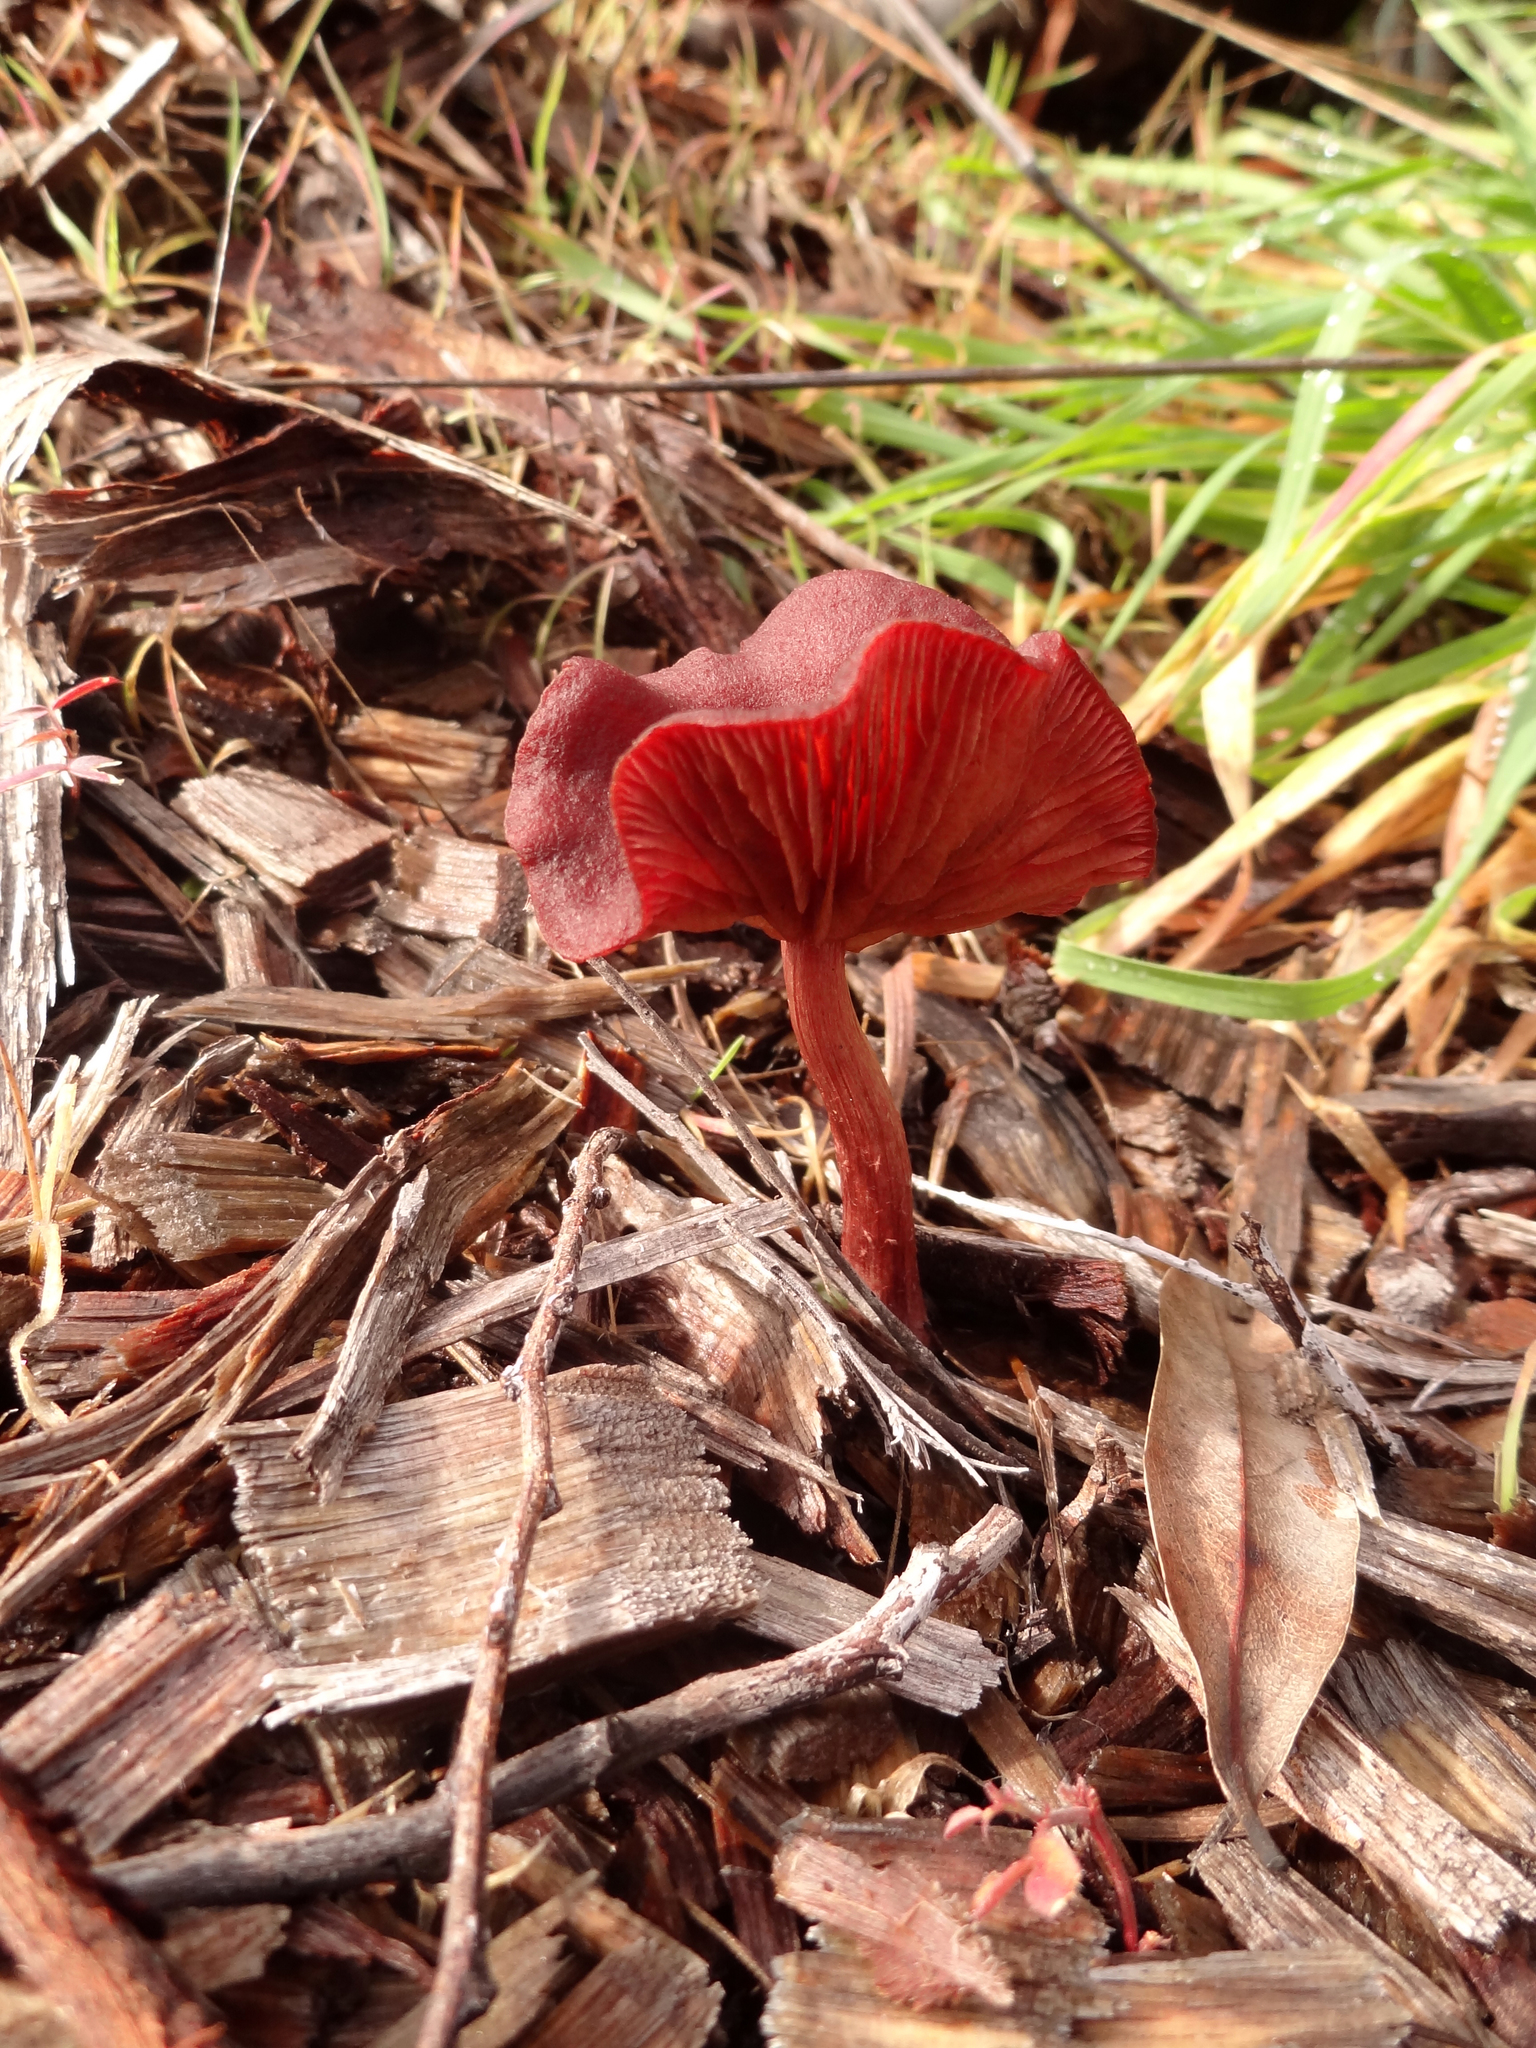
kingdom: Fungi
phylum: Basidiomycota
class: Agaricomycetes
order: Agaricales
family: Tubariaceae
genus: Tubaria
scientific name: Tubaria vinicolor
